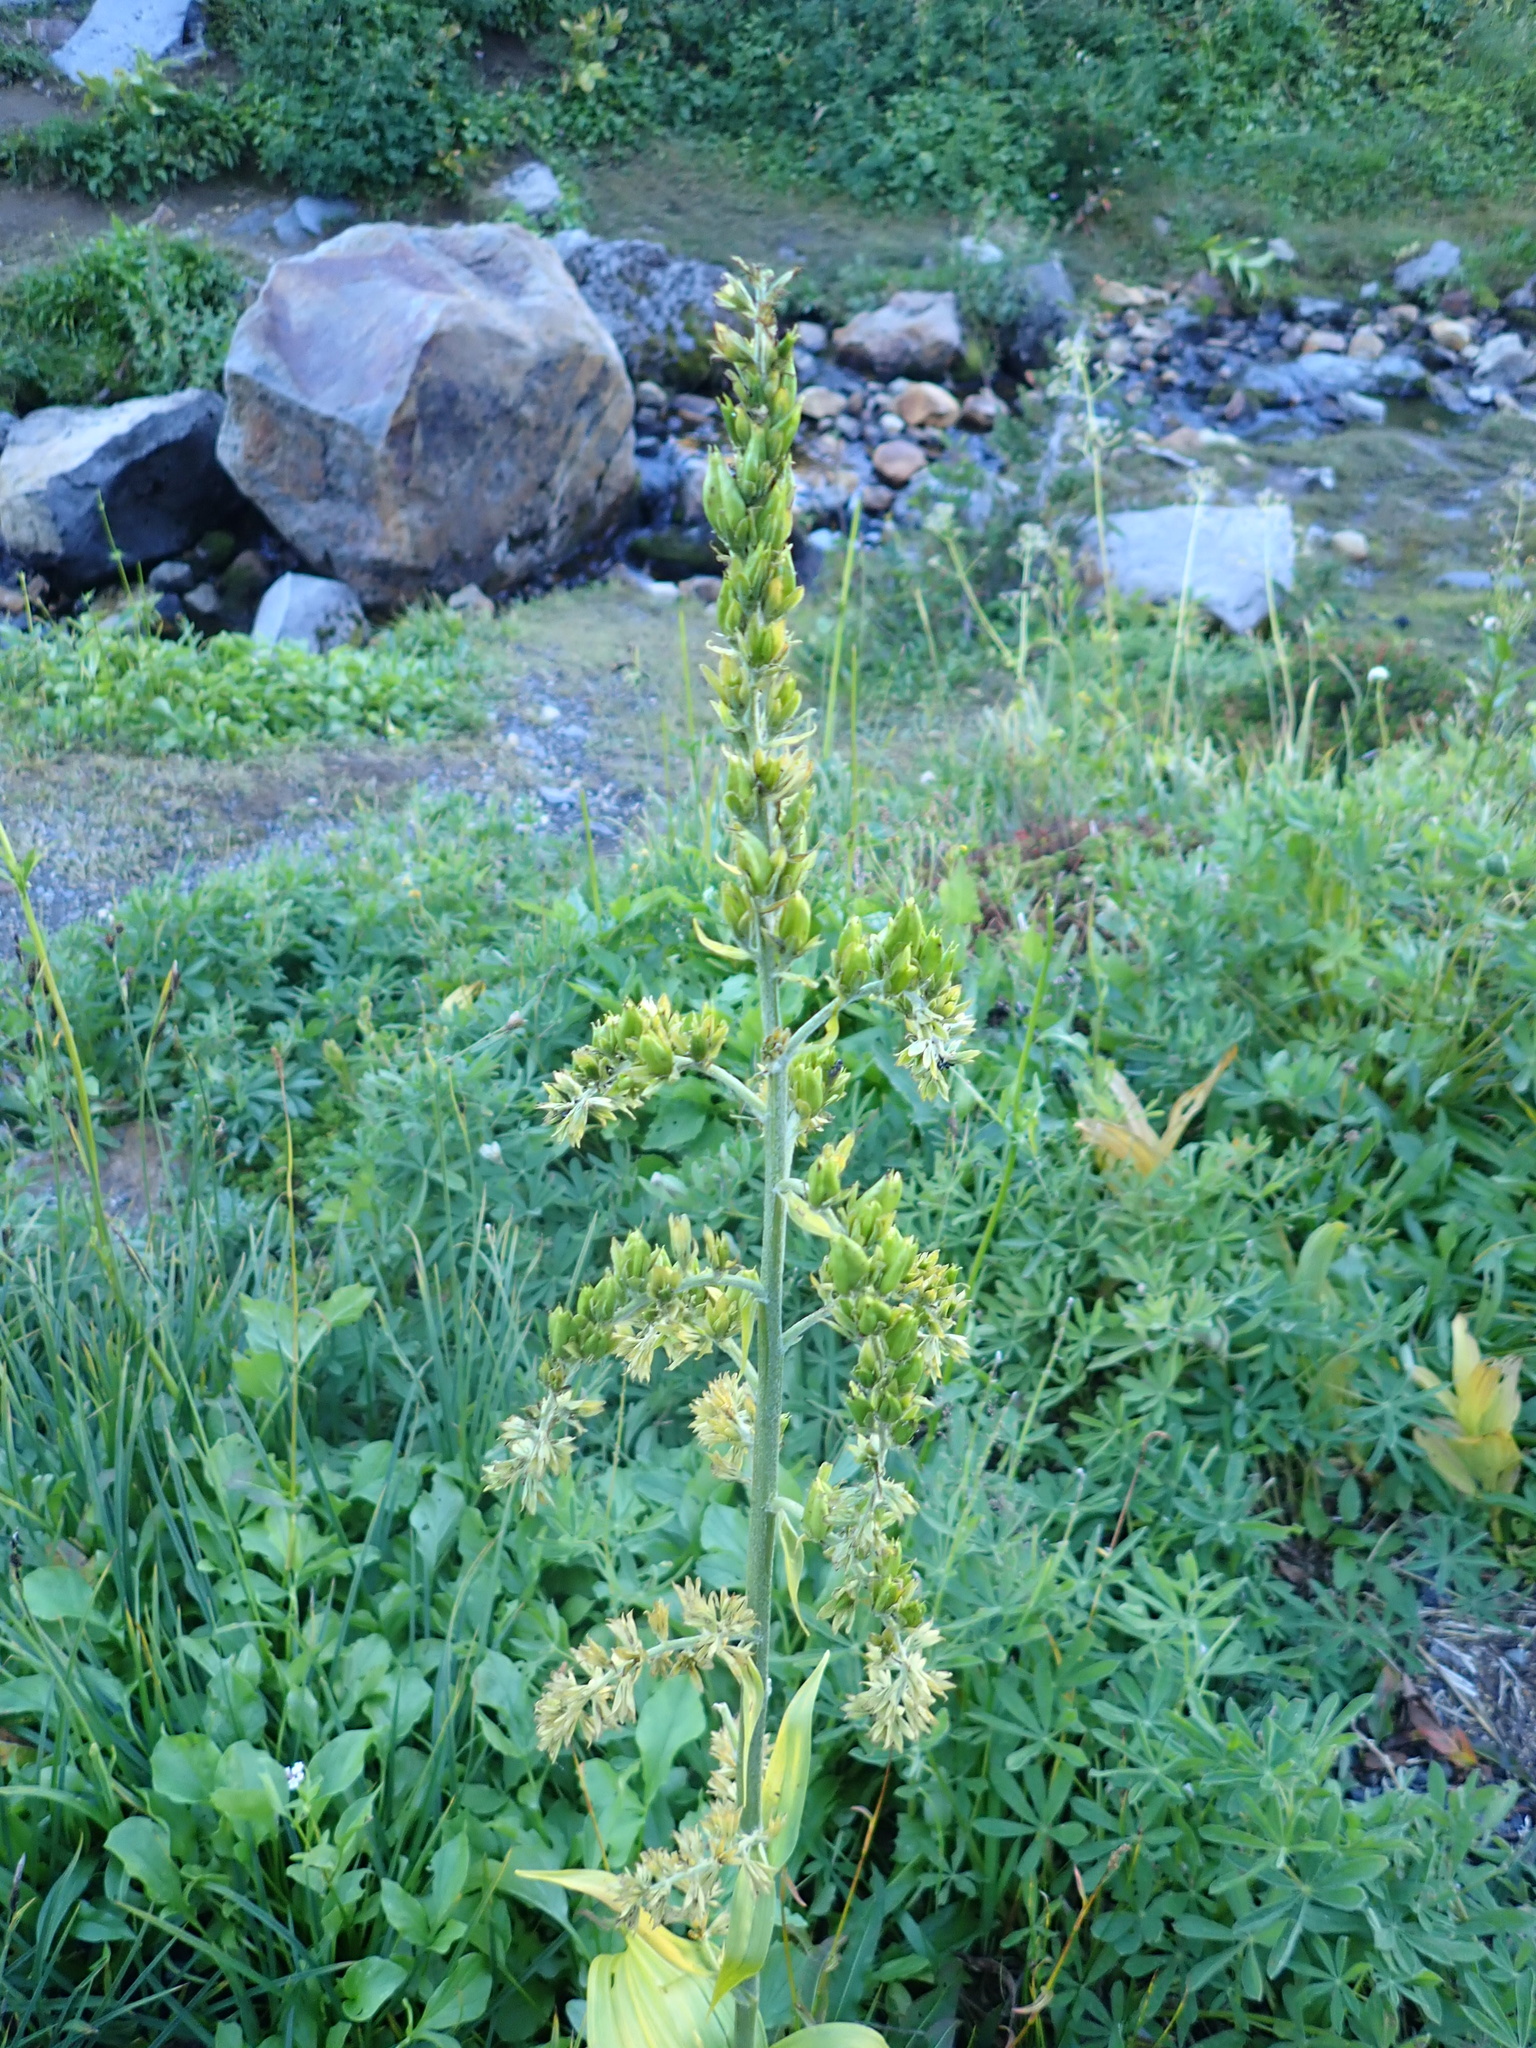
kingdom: Plantae
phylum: Tracheophyta
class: Liliopsida
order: Liliales
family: Melanthiaceae
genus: Veratrum
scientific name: Veratrum viride
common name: American false hellebore
